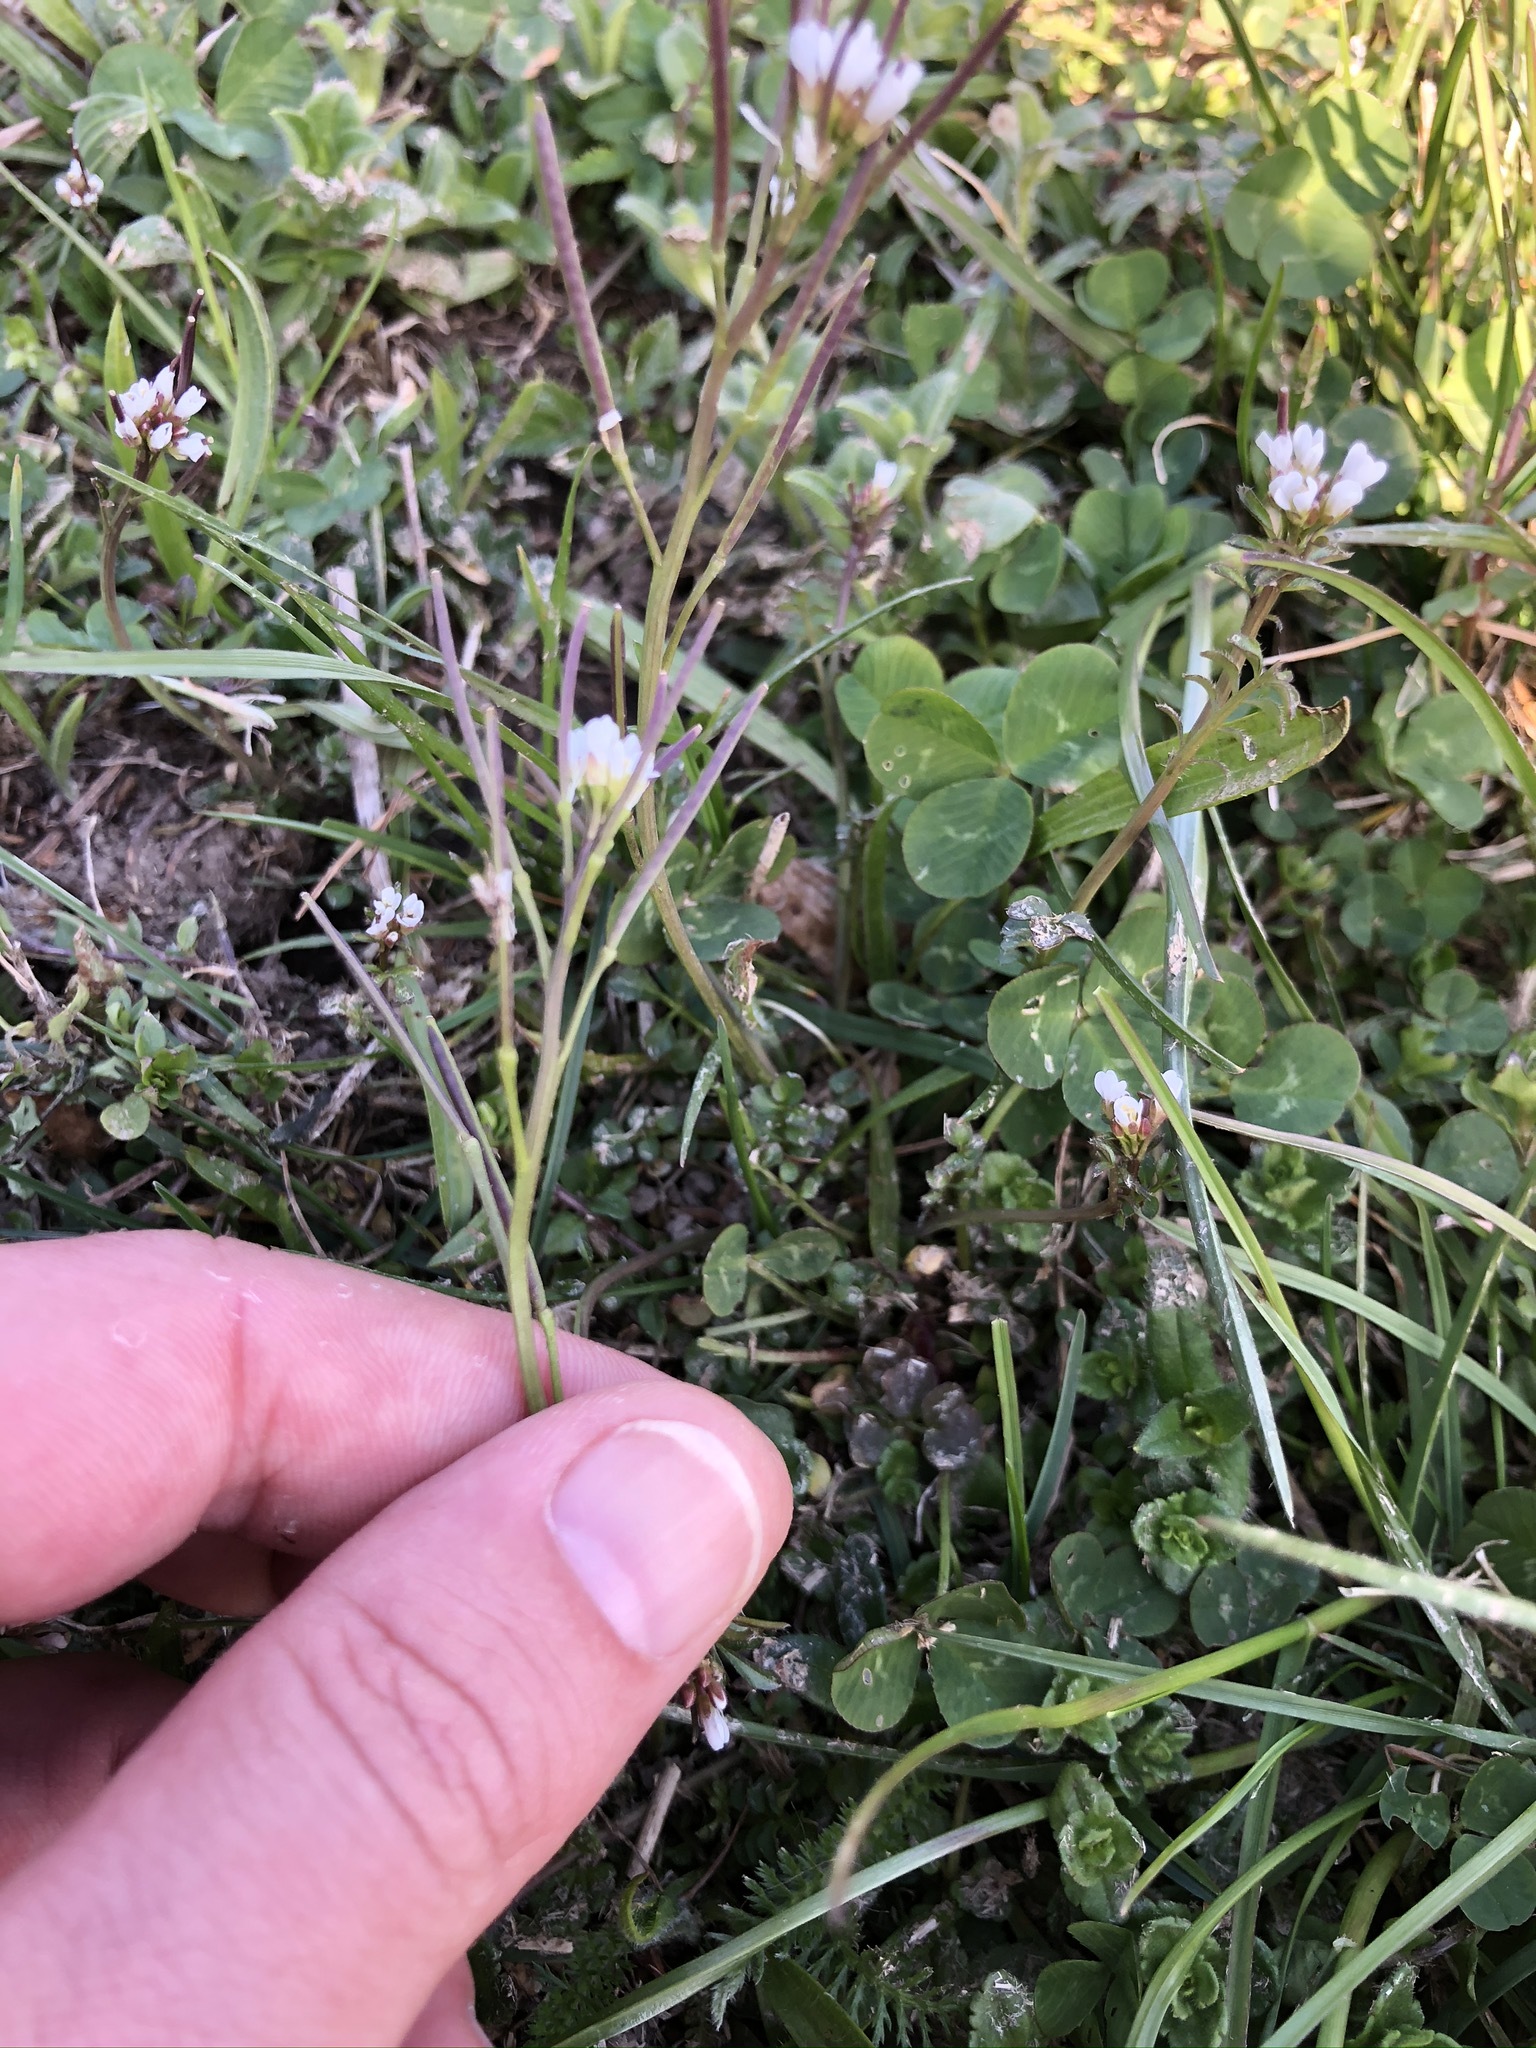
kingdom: Plantae
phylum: Tracheophyta
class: Magnoliopsida
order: Brassicales
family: Brassicaceae
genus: Cardamine
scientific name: Cardamine hirsuta
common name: Hairy bittercress
